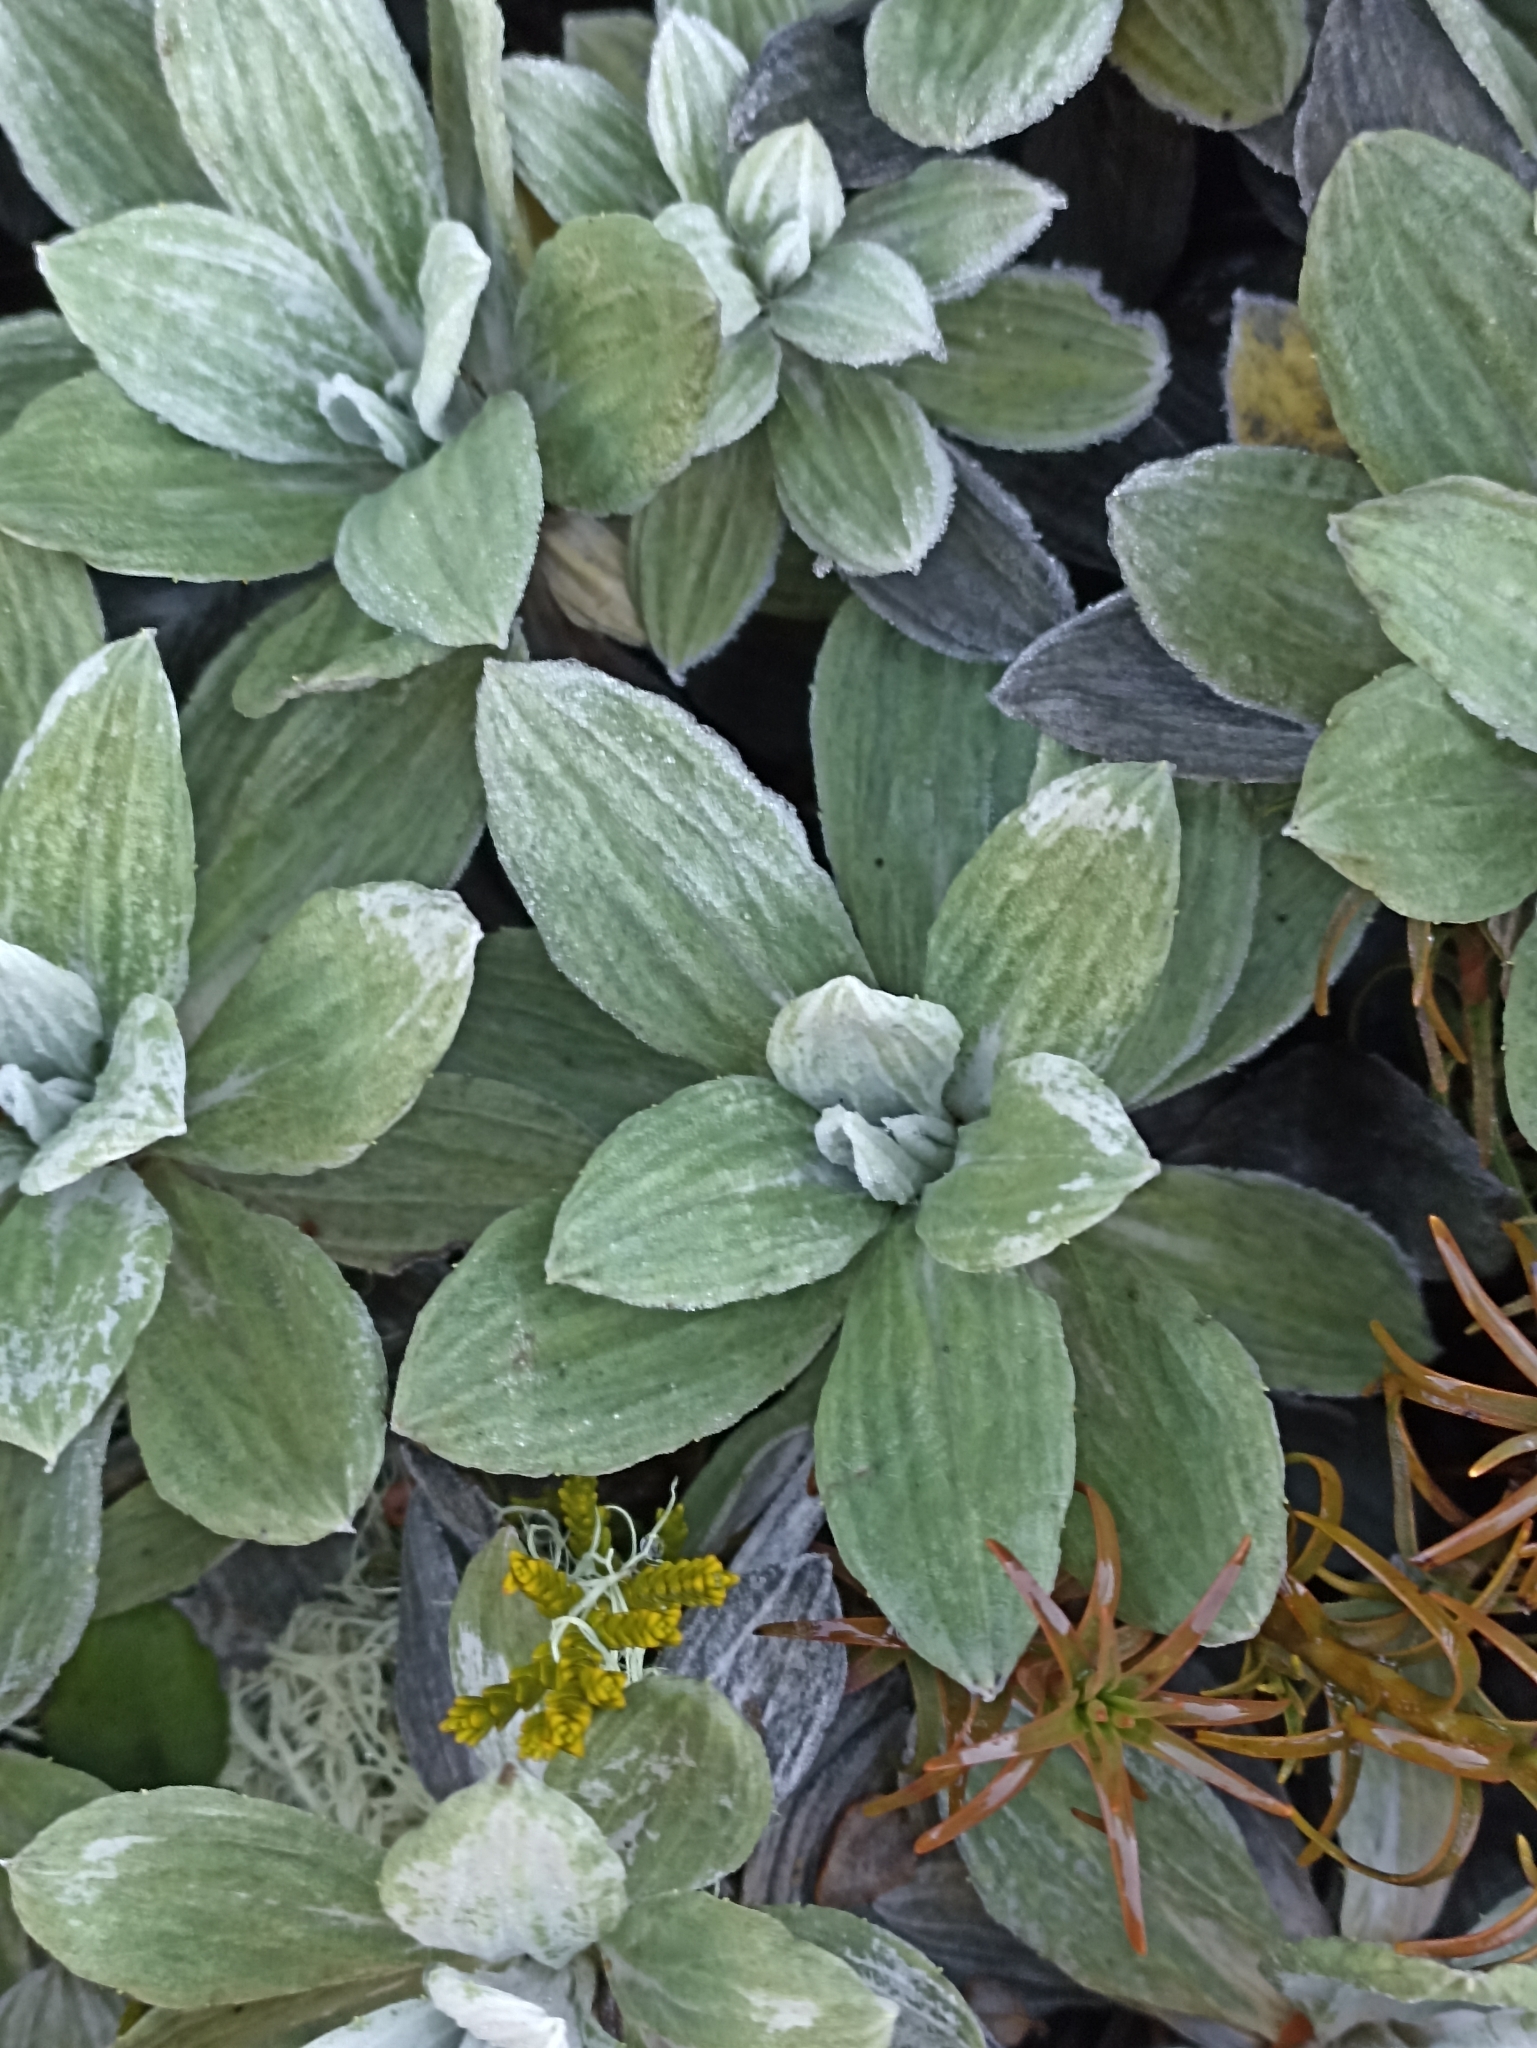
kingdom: Plantae
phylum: Tracheophyta
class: Magnoliopsida
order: Asterales
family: Asteraceae
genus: Celmisia
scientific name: Celmisia incana
